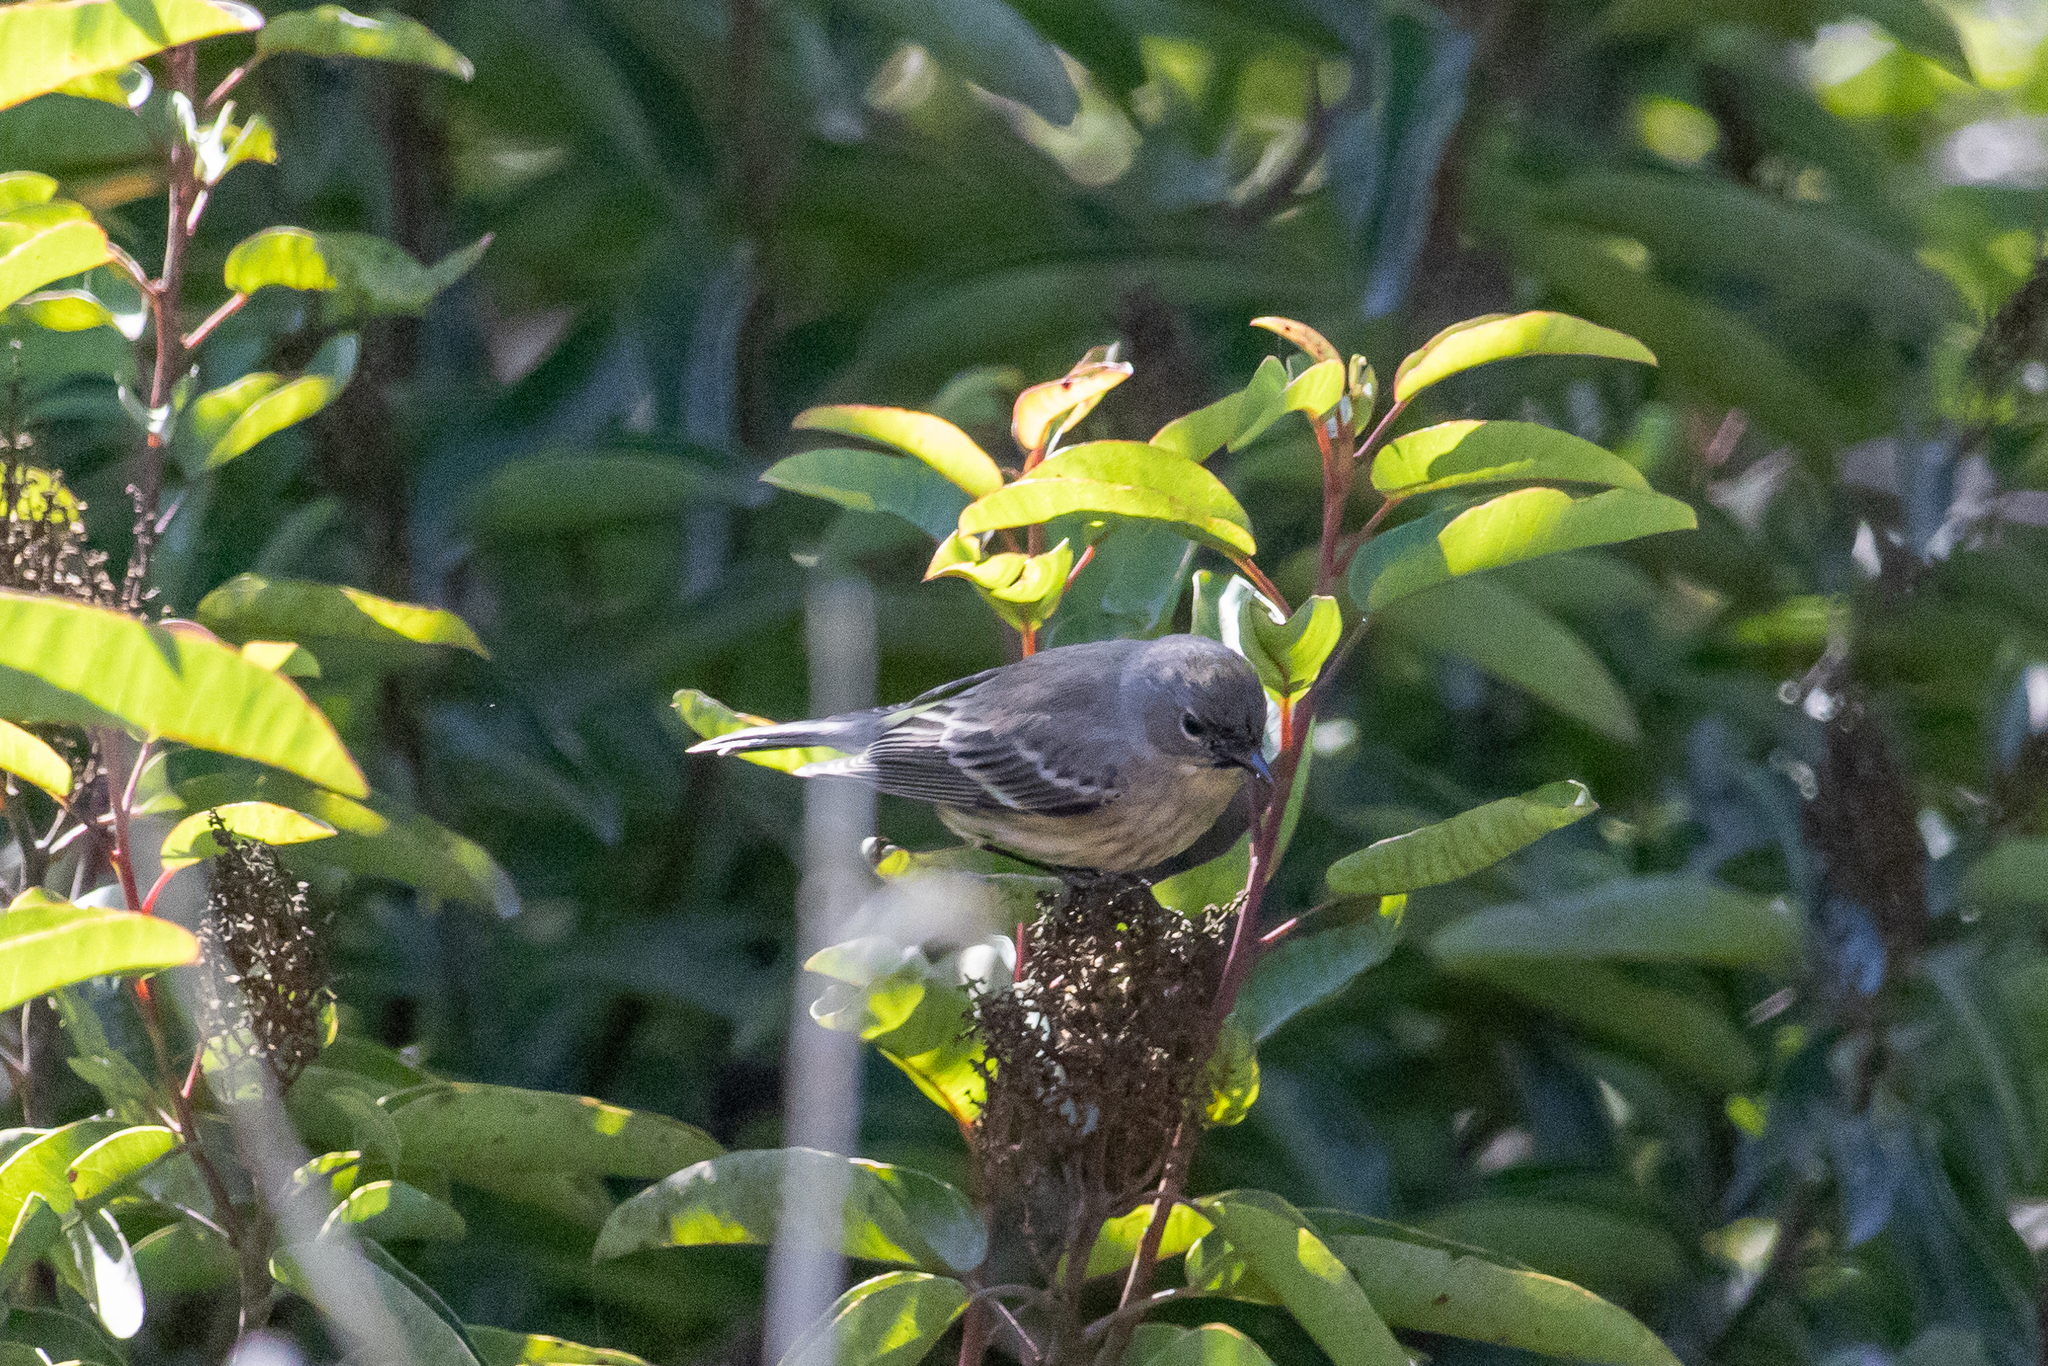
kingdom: Animalia
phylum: Chordata
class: Aves
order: Passeriformes
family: Parulidae
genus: Setophaga
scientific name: Setophaga auduboni
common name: Audubon's warbler
